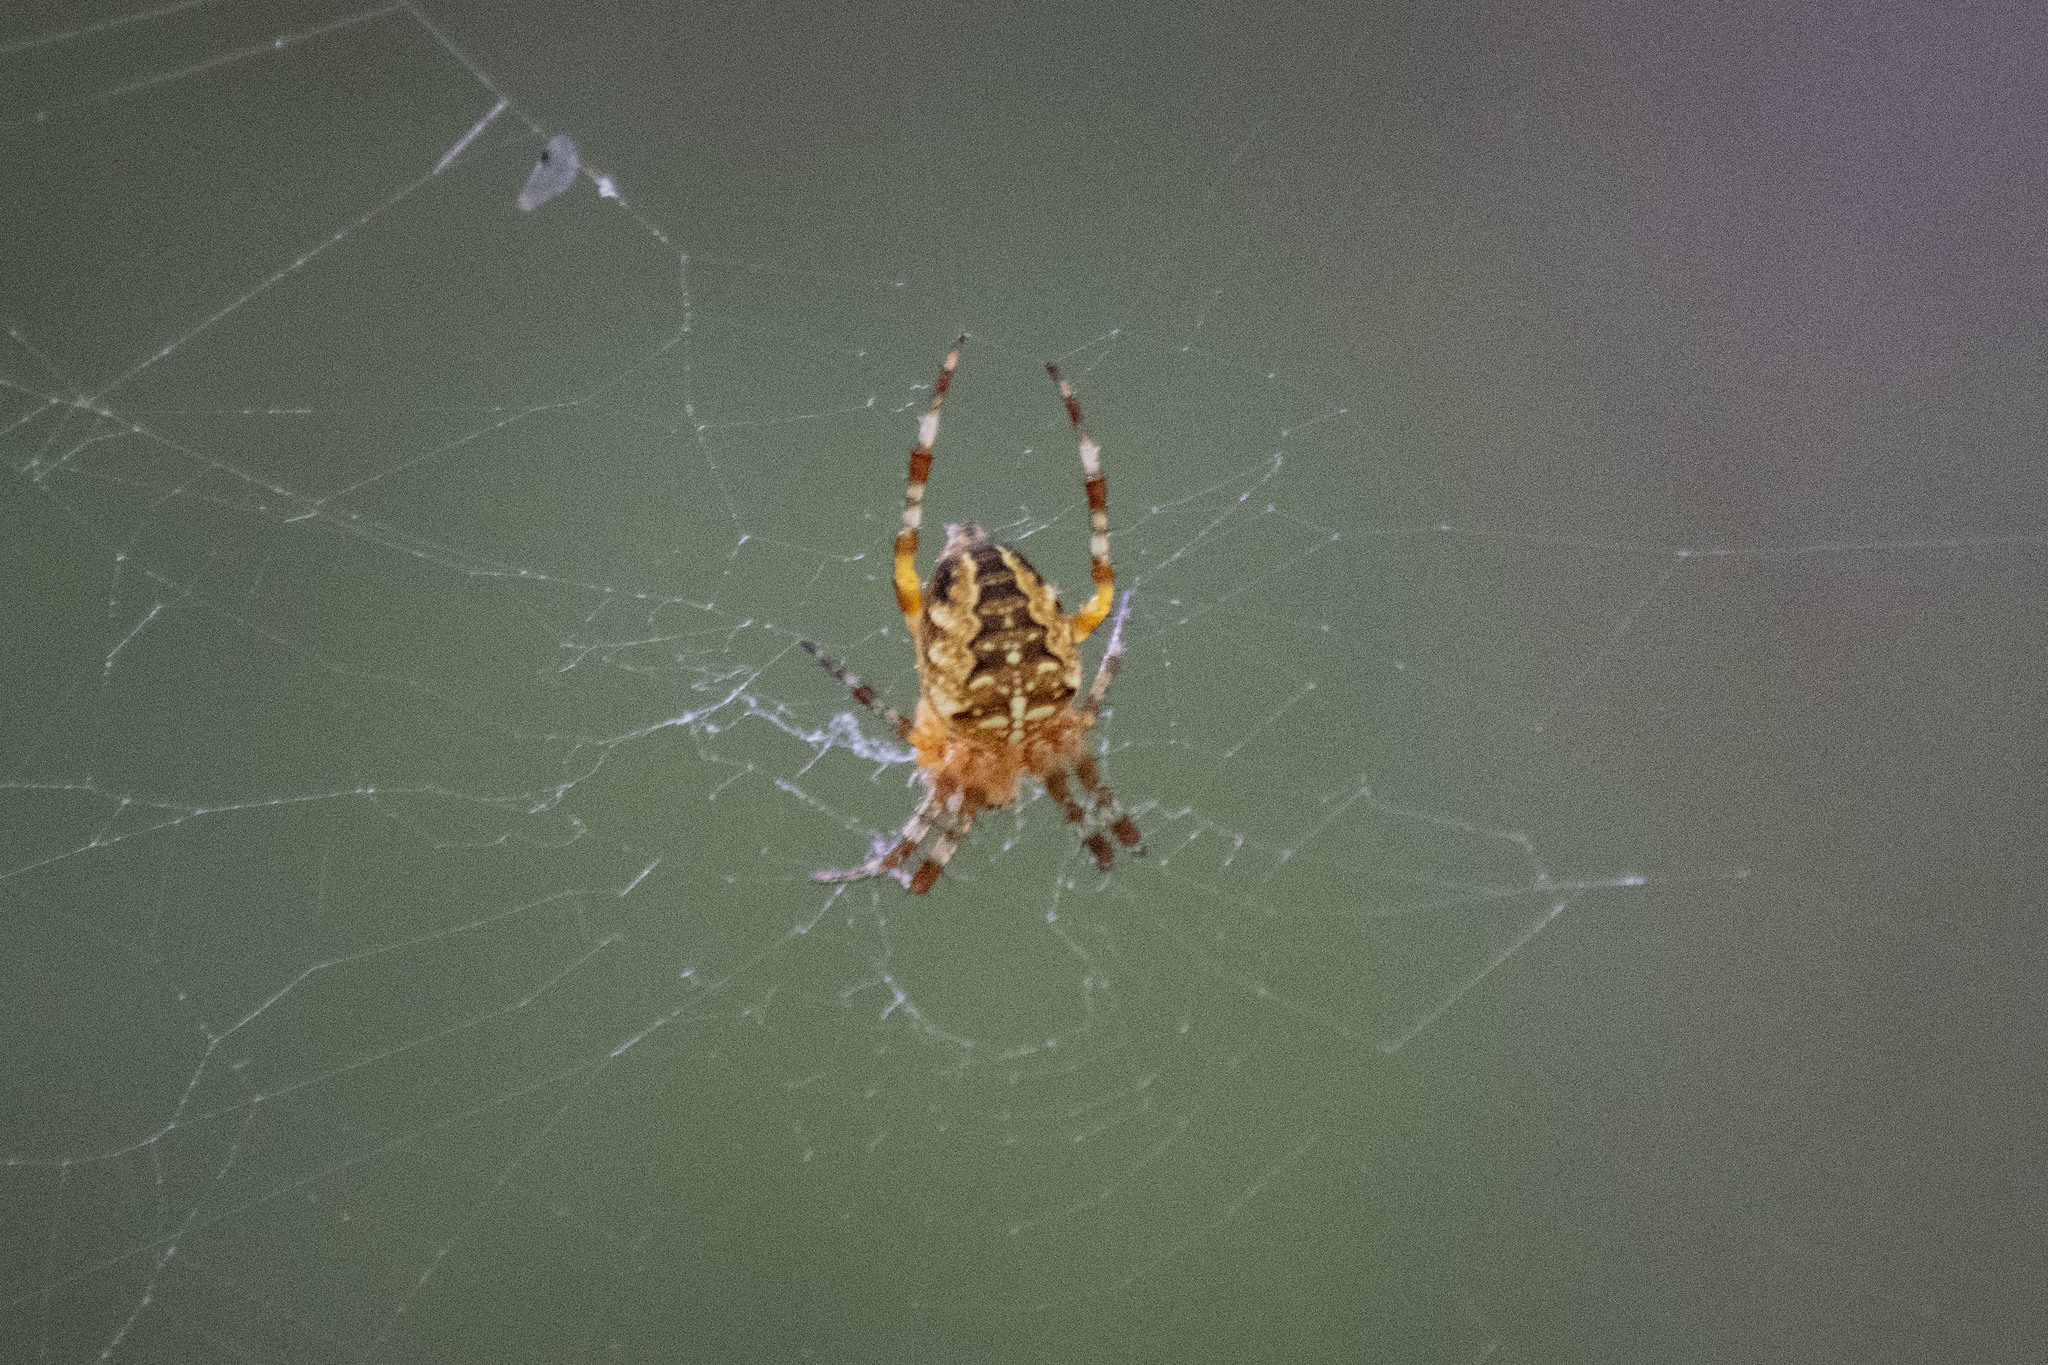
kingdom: Animalia
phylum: Arthropoda
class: Arachnida
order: Araneae
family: Araneidae
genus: Araneus
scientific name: Araneus diadematus
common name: Cross orbweaver
